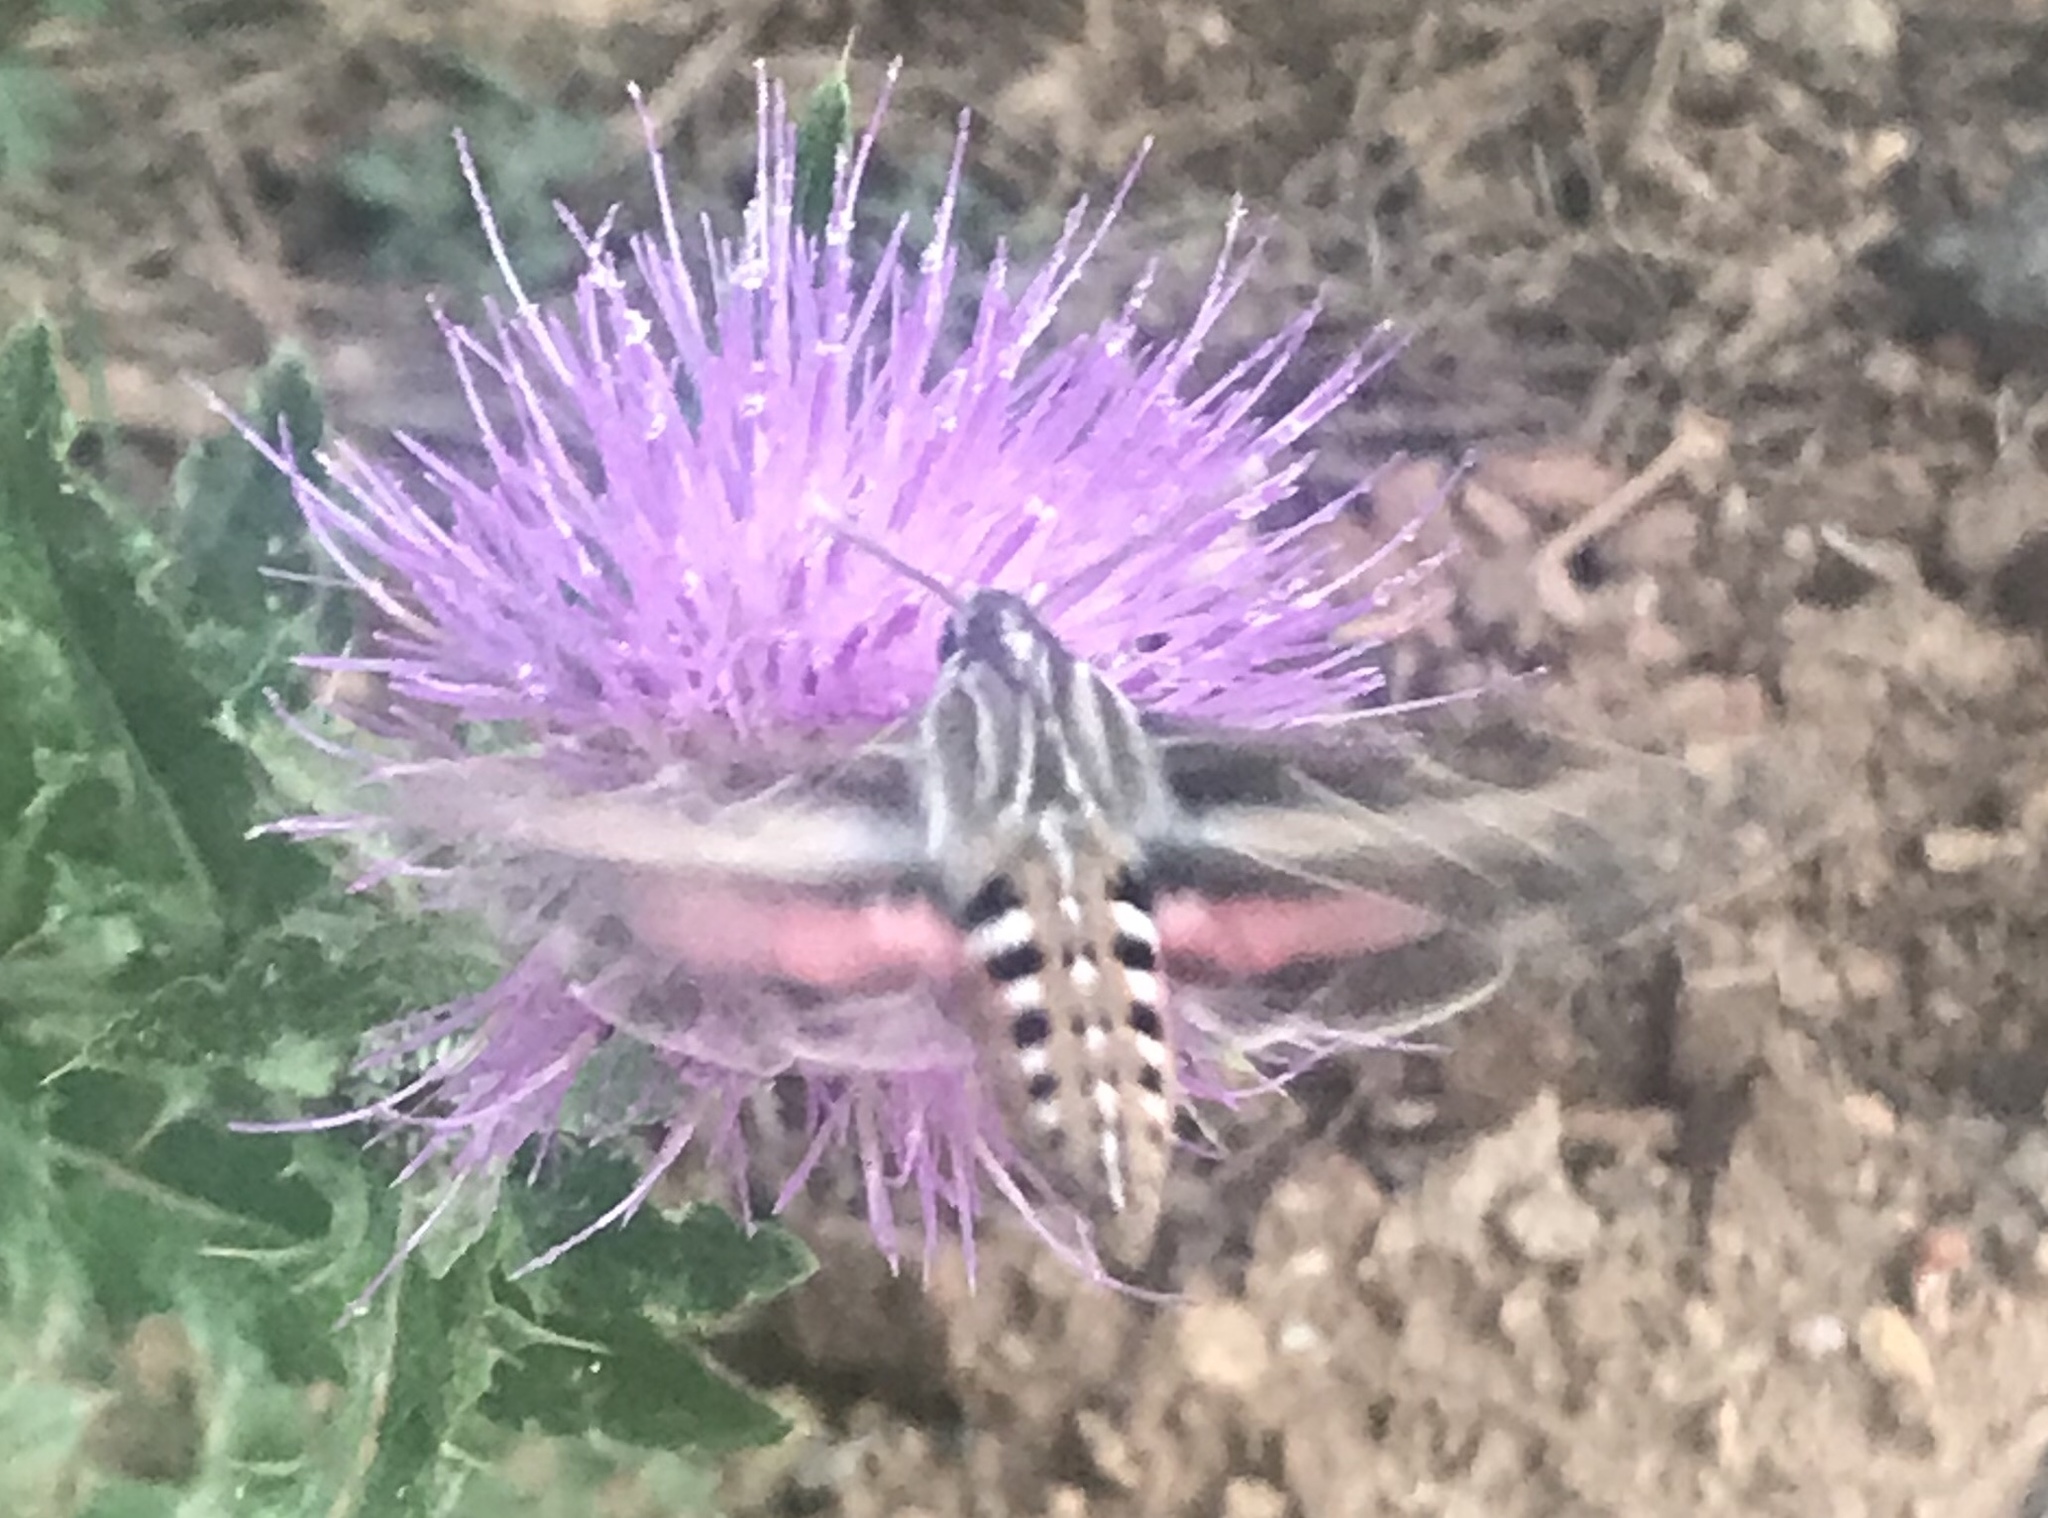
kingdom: Animalia
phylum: Arthropoda
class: Insecta
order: Lepidoptera
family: Sphingidae
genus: Hyles
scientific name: Hyles lineata
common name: White-lined sphinx
